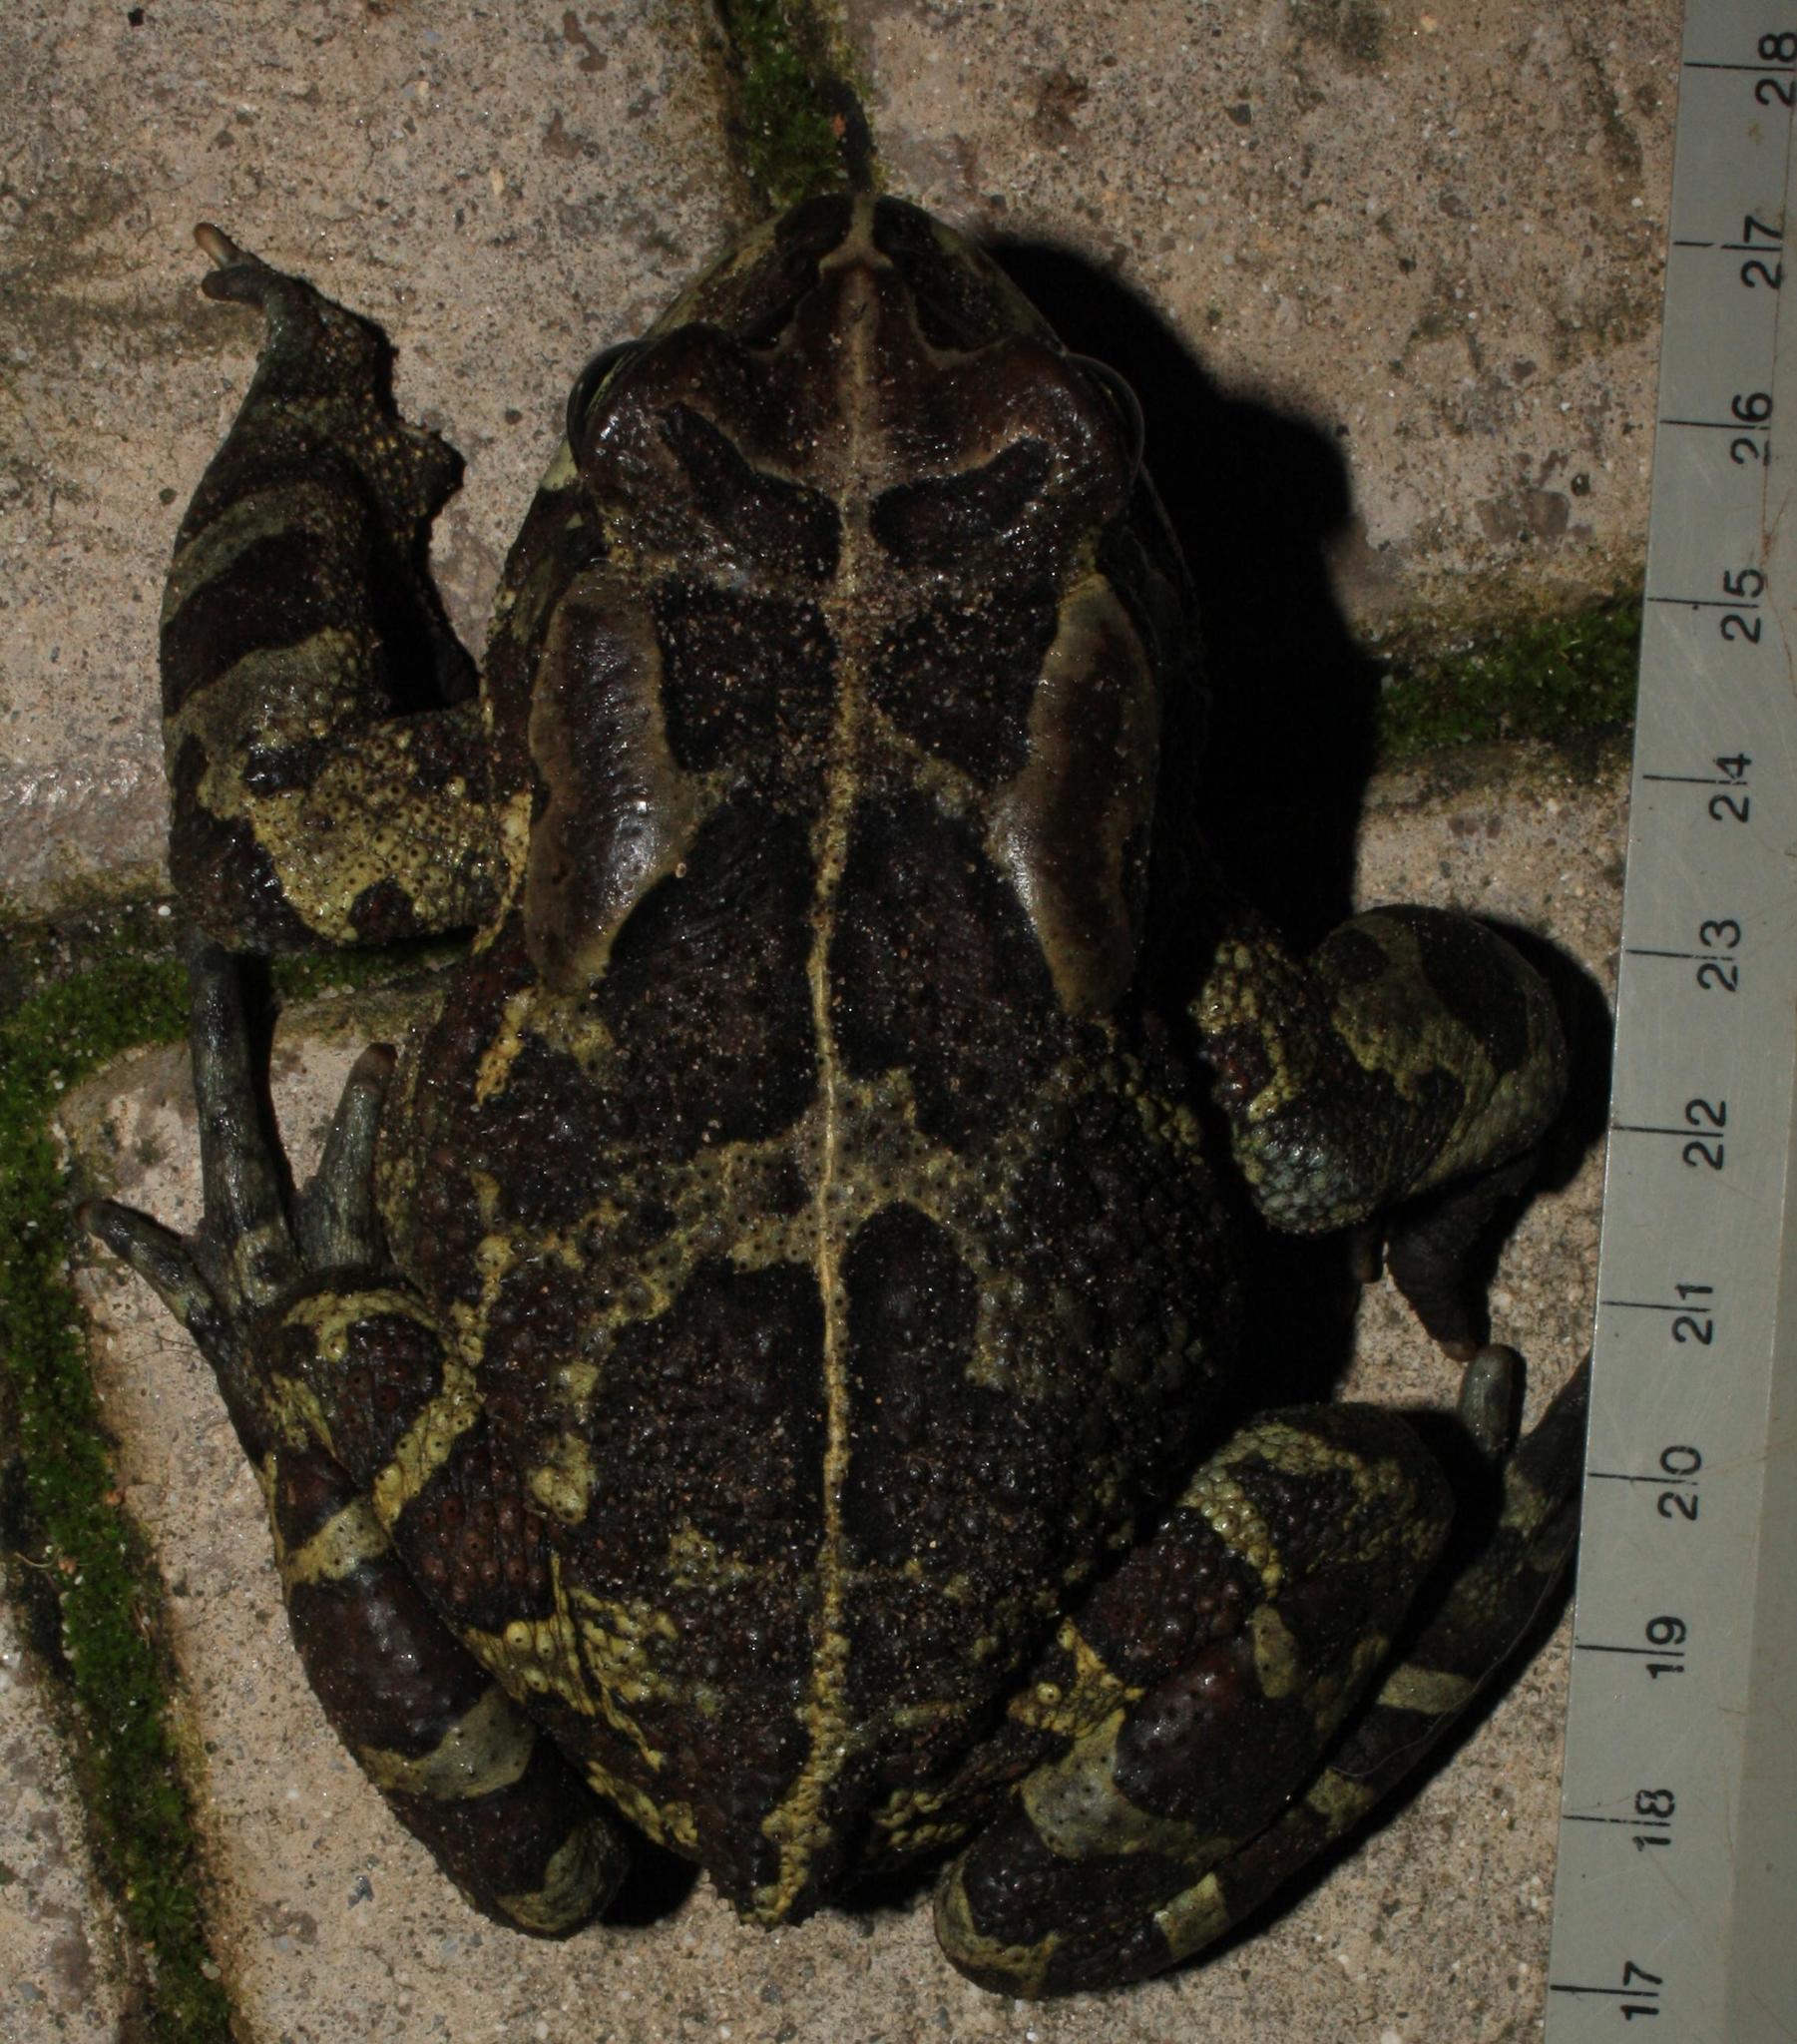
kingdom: Animalia
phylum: Chordata
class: Amphibia
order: Anura
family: Bufonidae
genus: Sclerophrys
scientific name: Sclerophrys pantherina
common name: Panther toad
